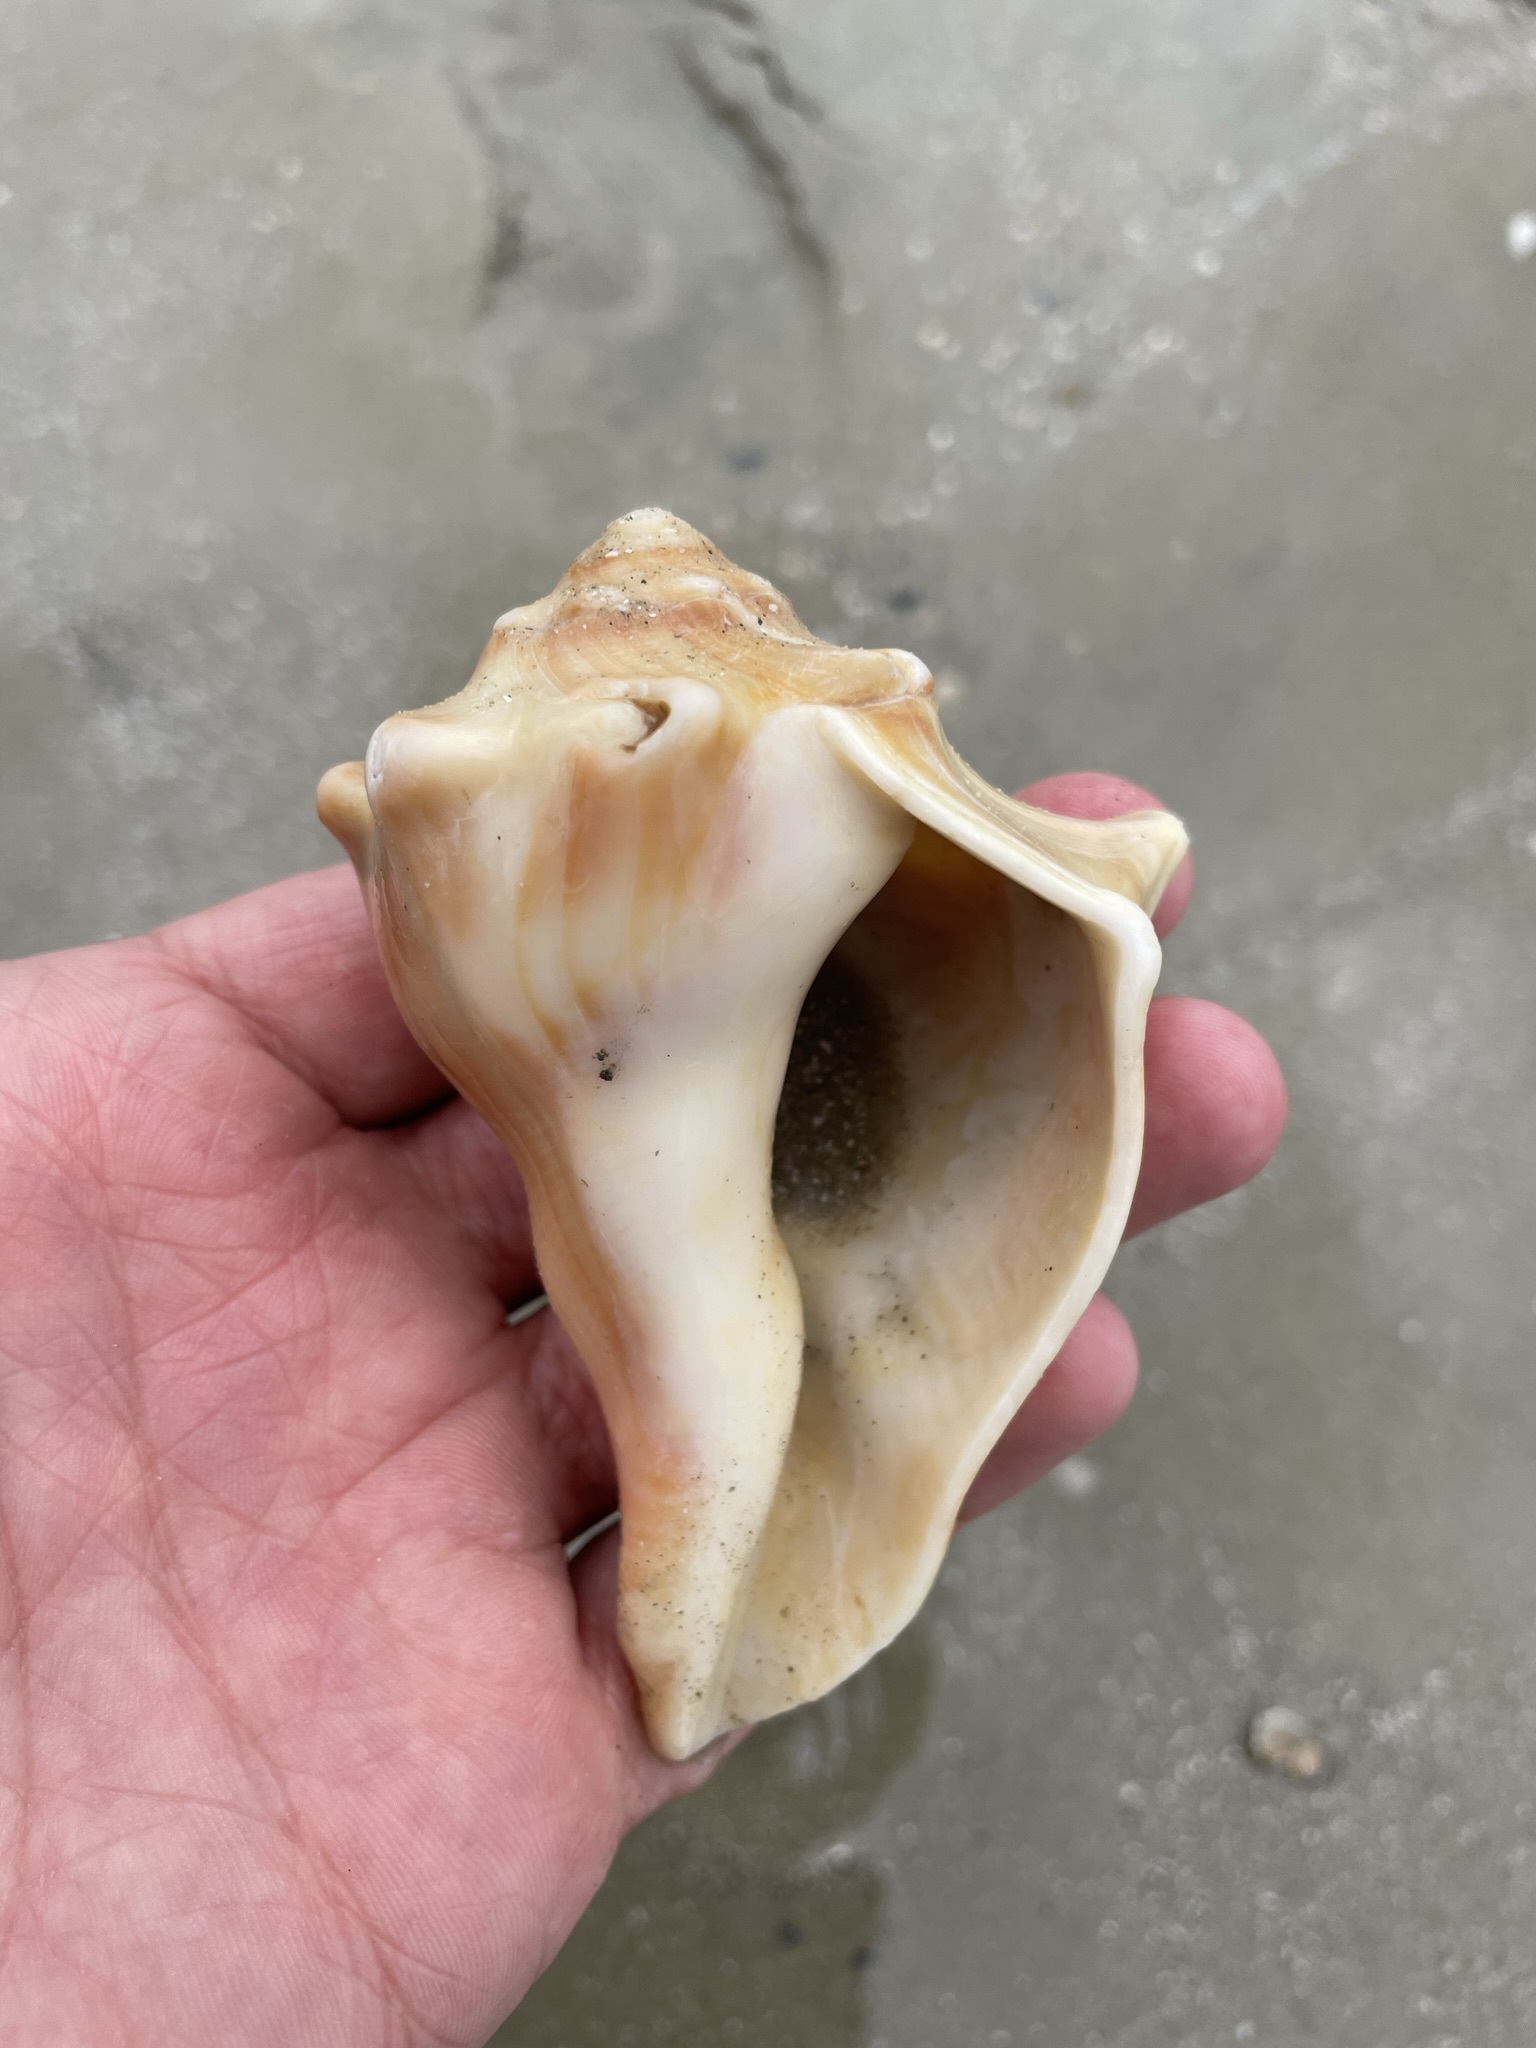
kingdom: Animalia
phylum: Mollusca
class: Gastropoda
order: Neogastropoda
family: Busyconidae
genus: Busycon
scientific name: Busycon carica
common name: Knobbed whelk
